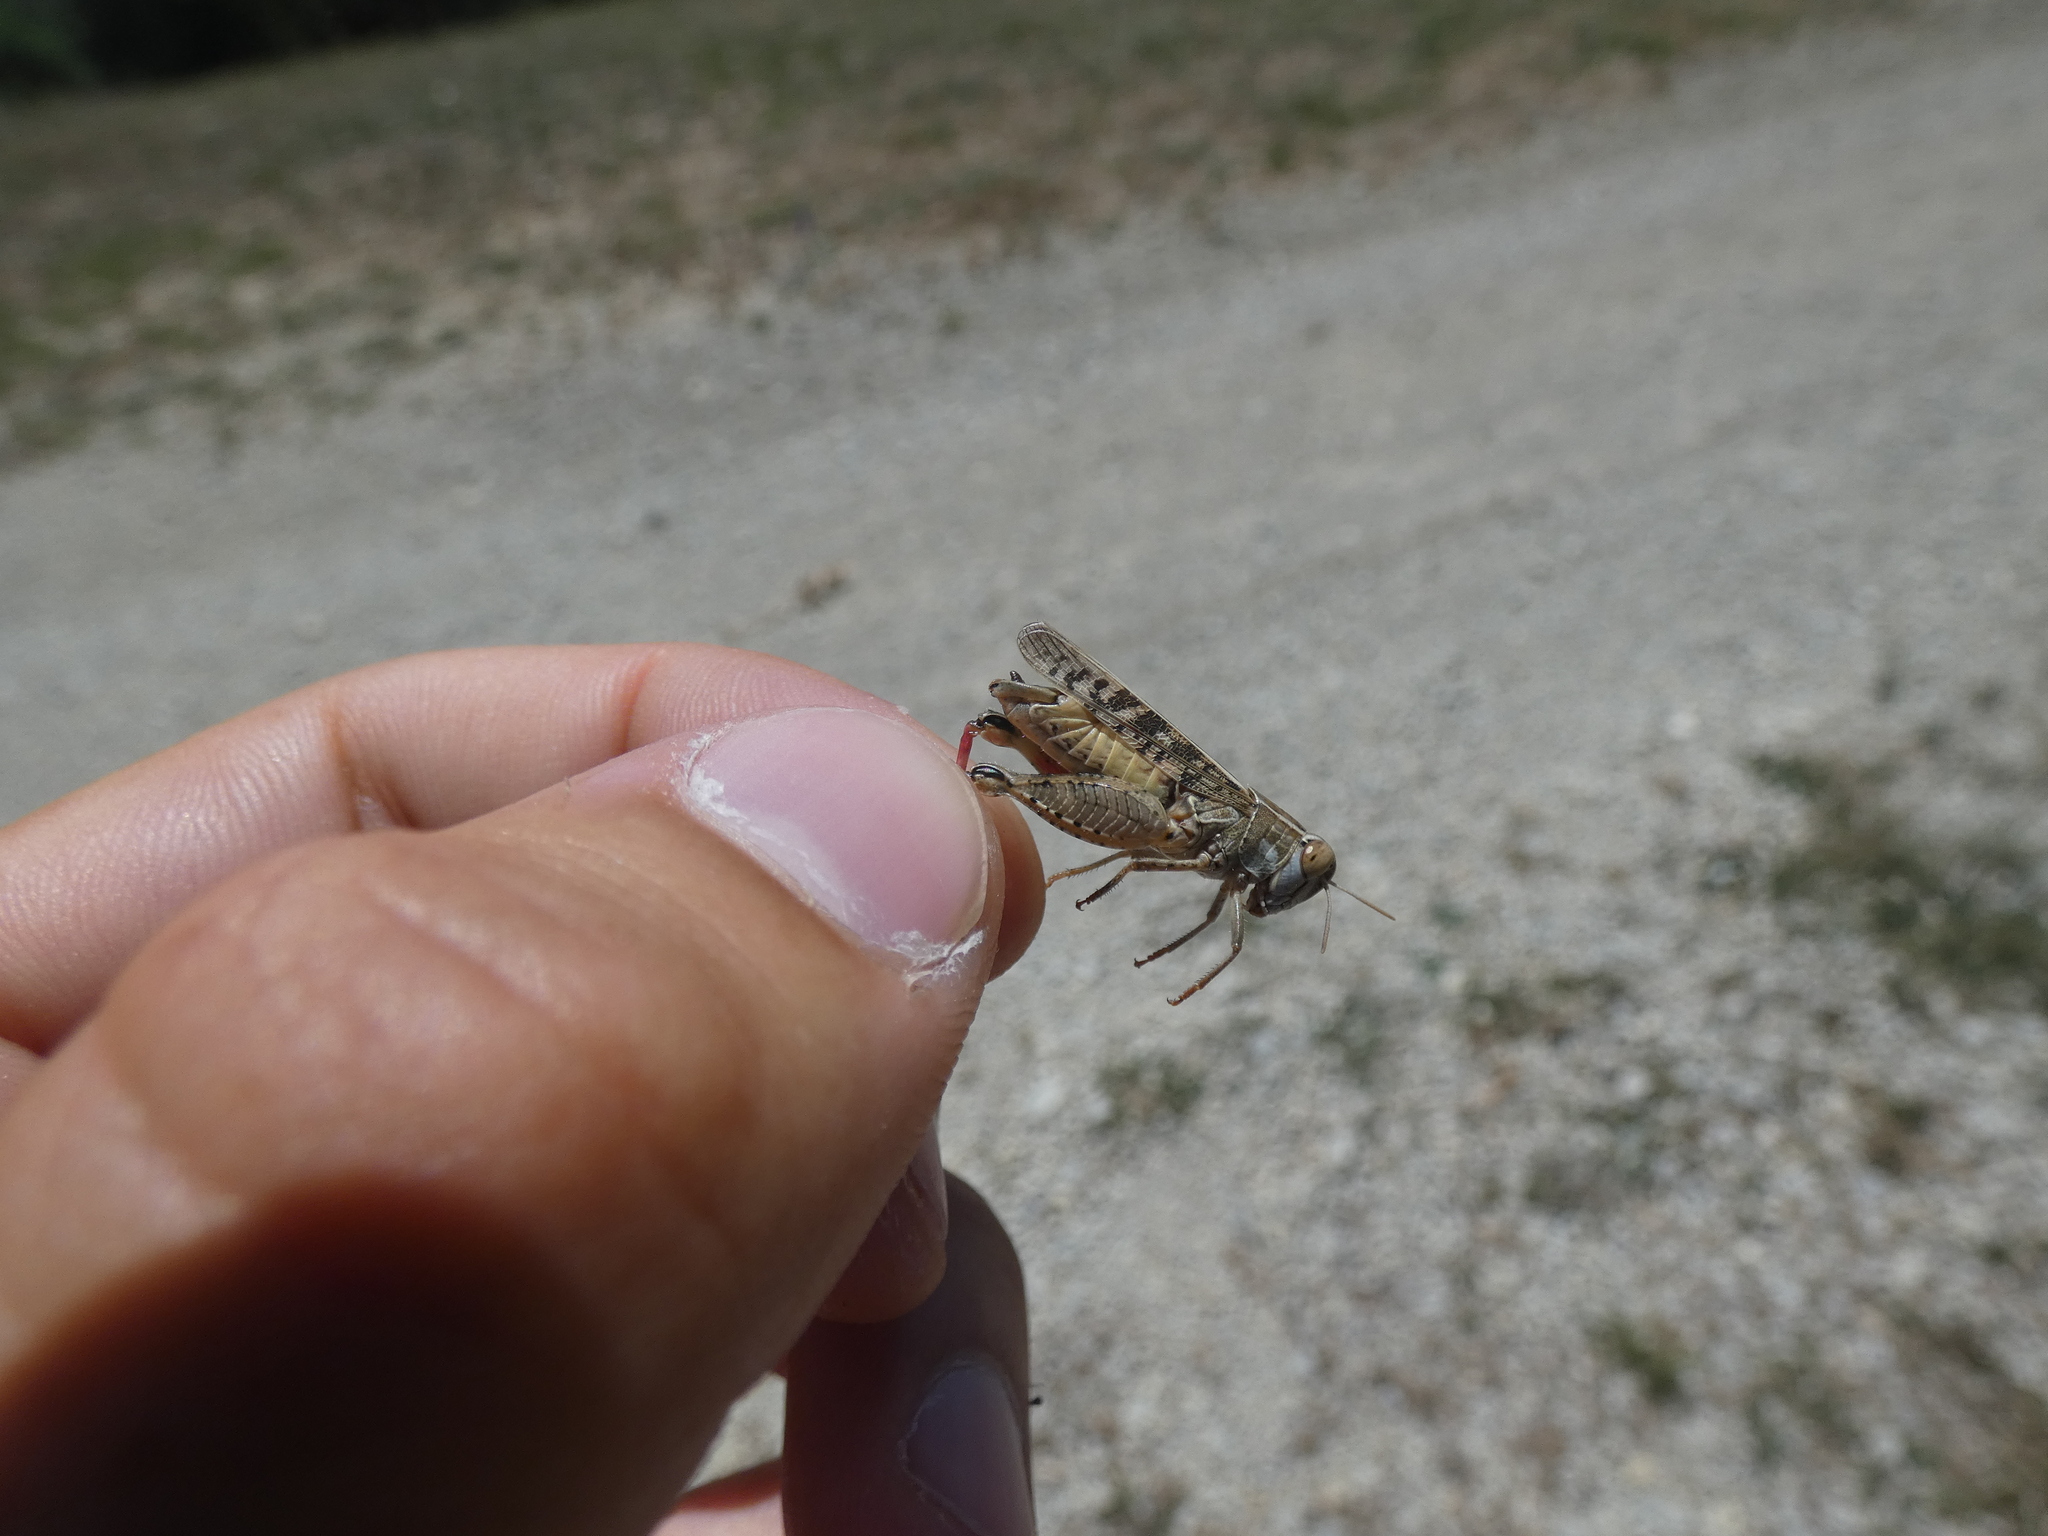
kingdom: Animalia
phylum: Arthropoda
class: Insecta
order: Orthoptera
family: Acrididae
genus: Calliptamus
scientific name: Calliptamus italicus
